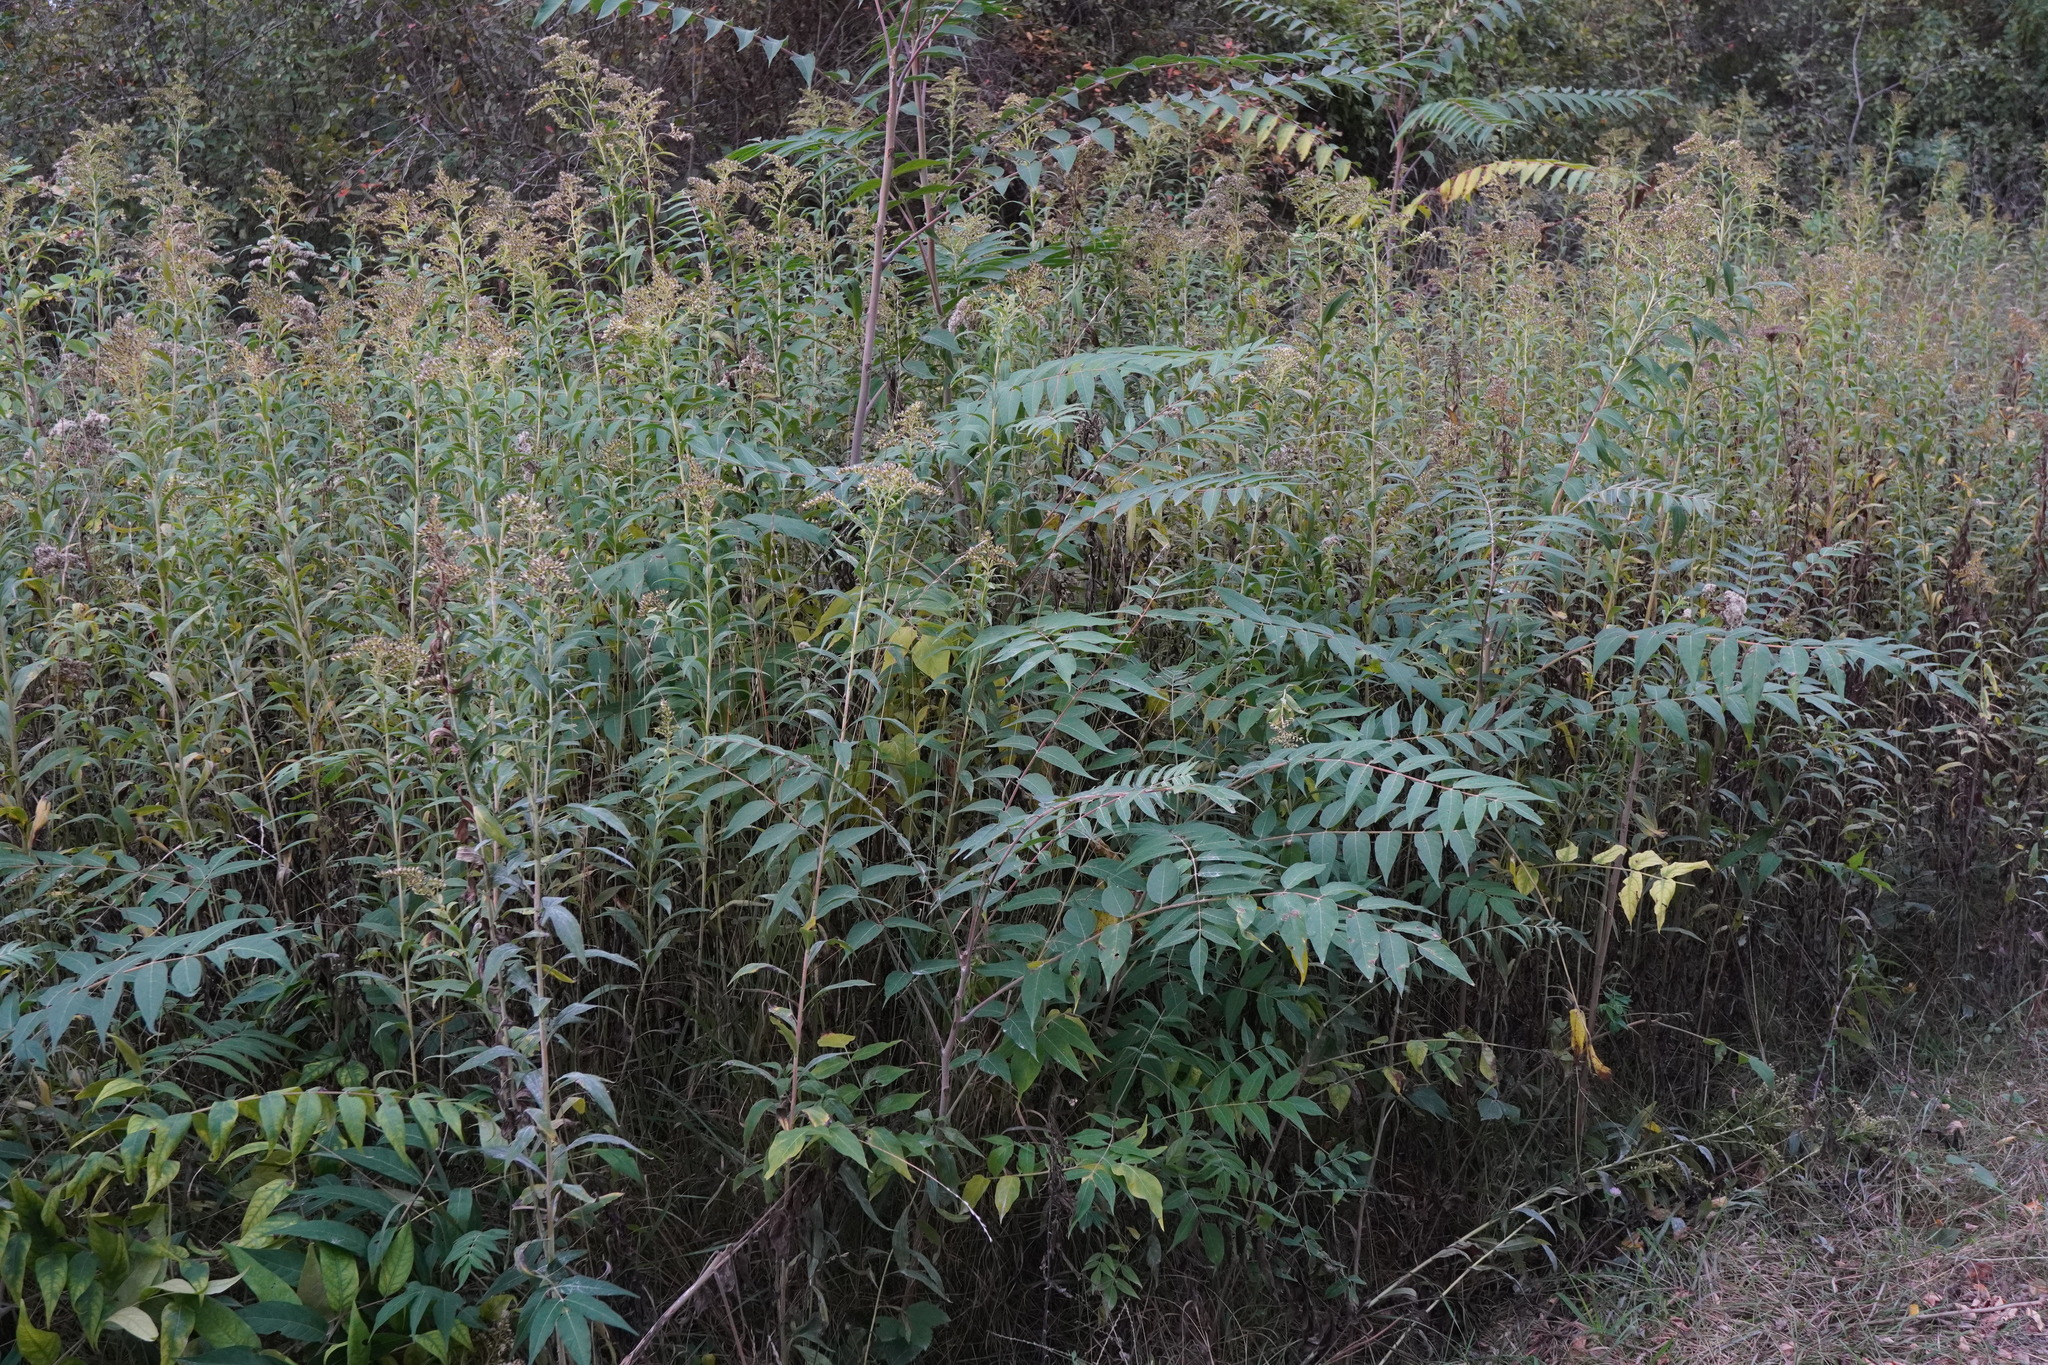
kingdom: Plantae
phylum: Tracheophyta
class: Magnoliopsida
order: Sapindales
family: Simaroubaceae
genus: Ailanthus
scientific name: Ailanthus altissima
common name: Tree-of-heaven
